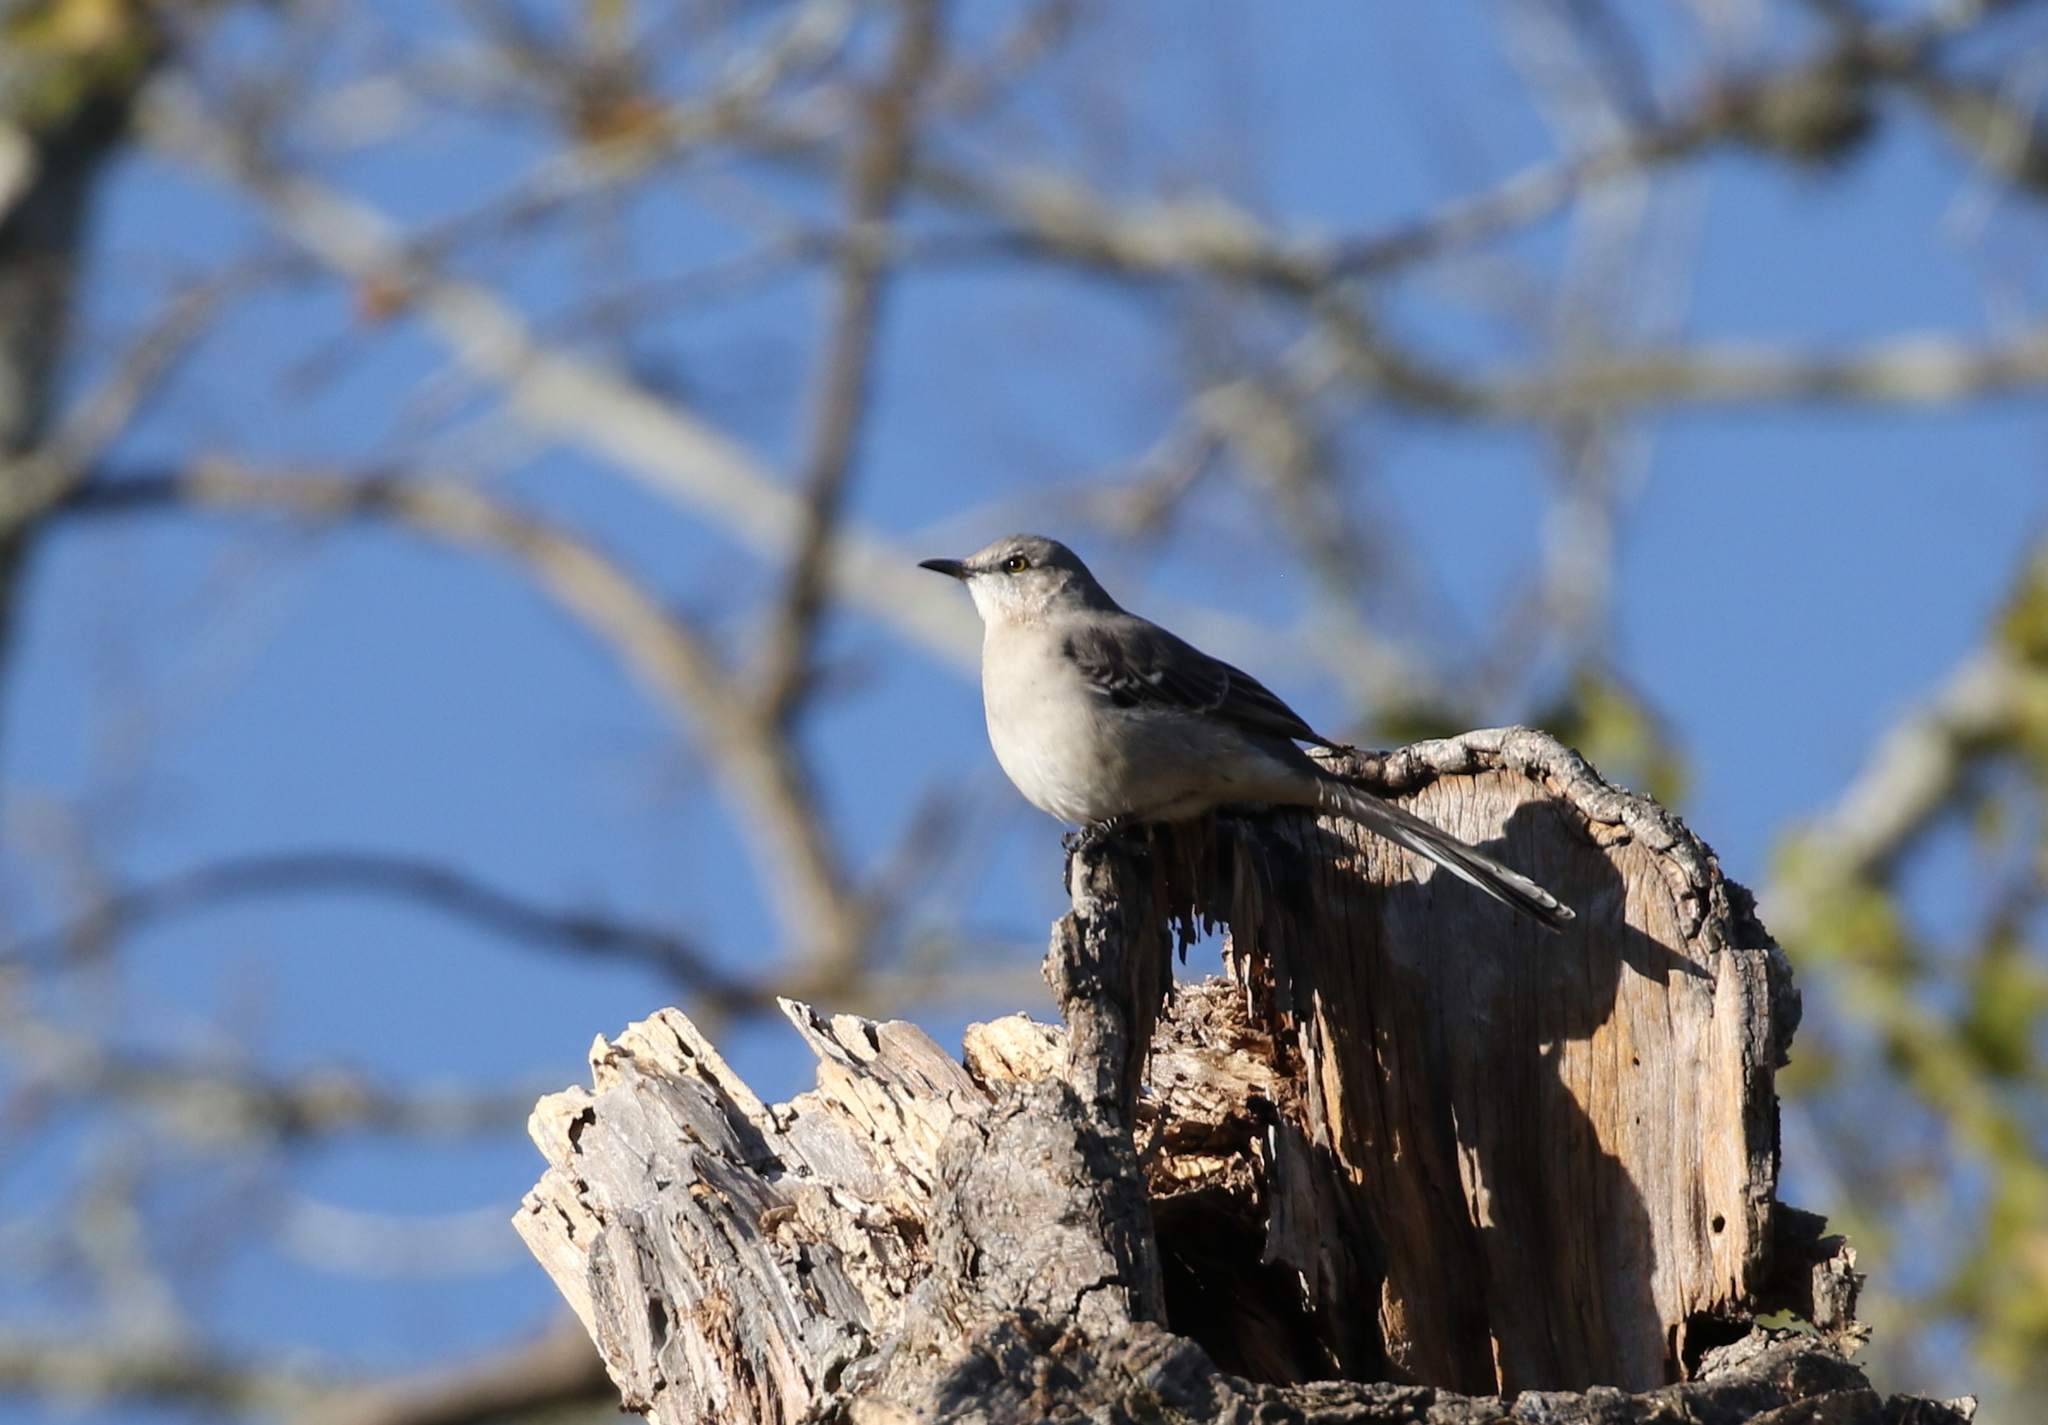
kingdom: Animalia
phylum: Chordata
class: Aves
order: Passeriformes
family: Mimidae
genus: Mimus
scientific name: Mimus polyglottos
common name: Northern mockingbird
